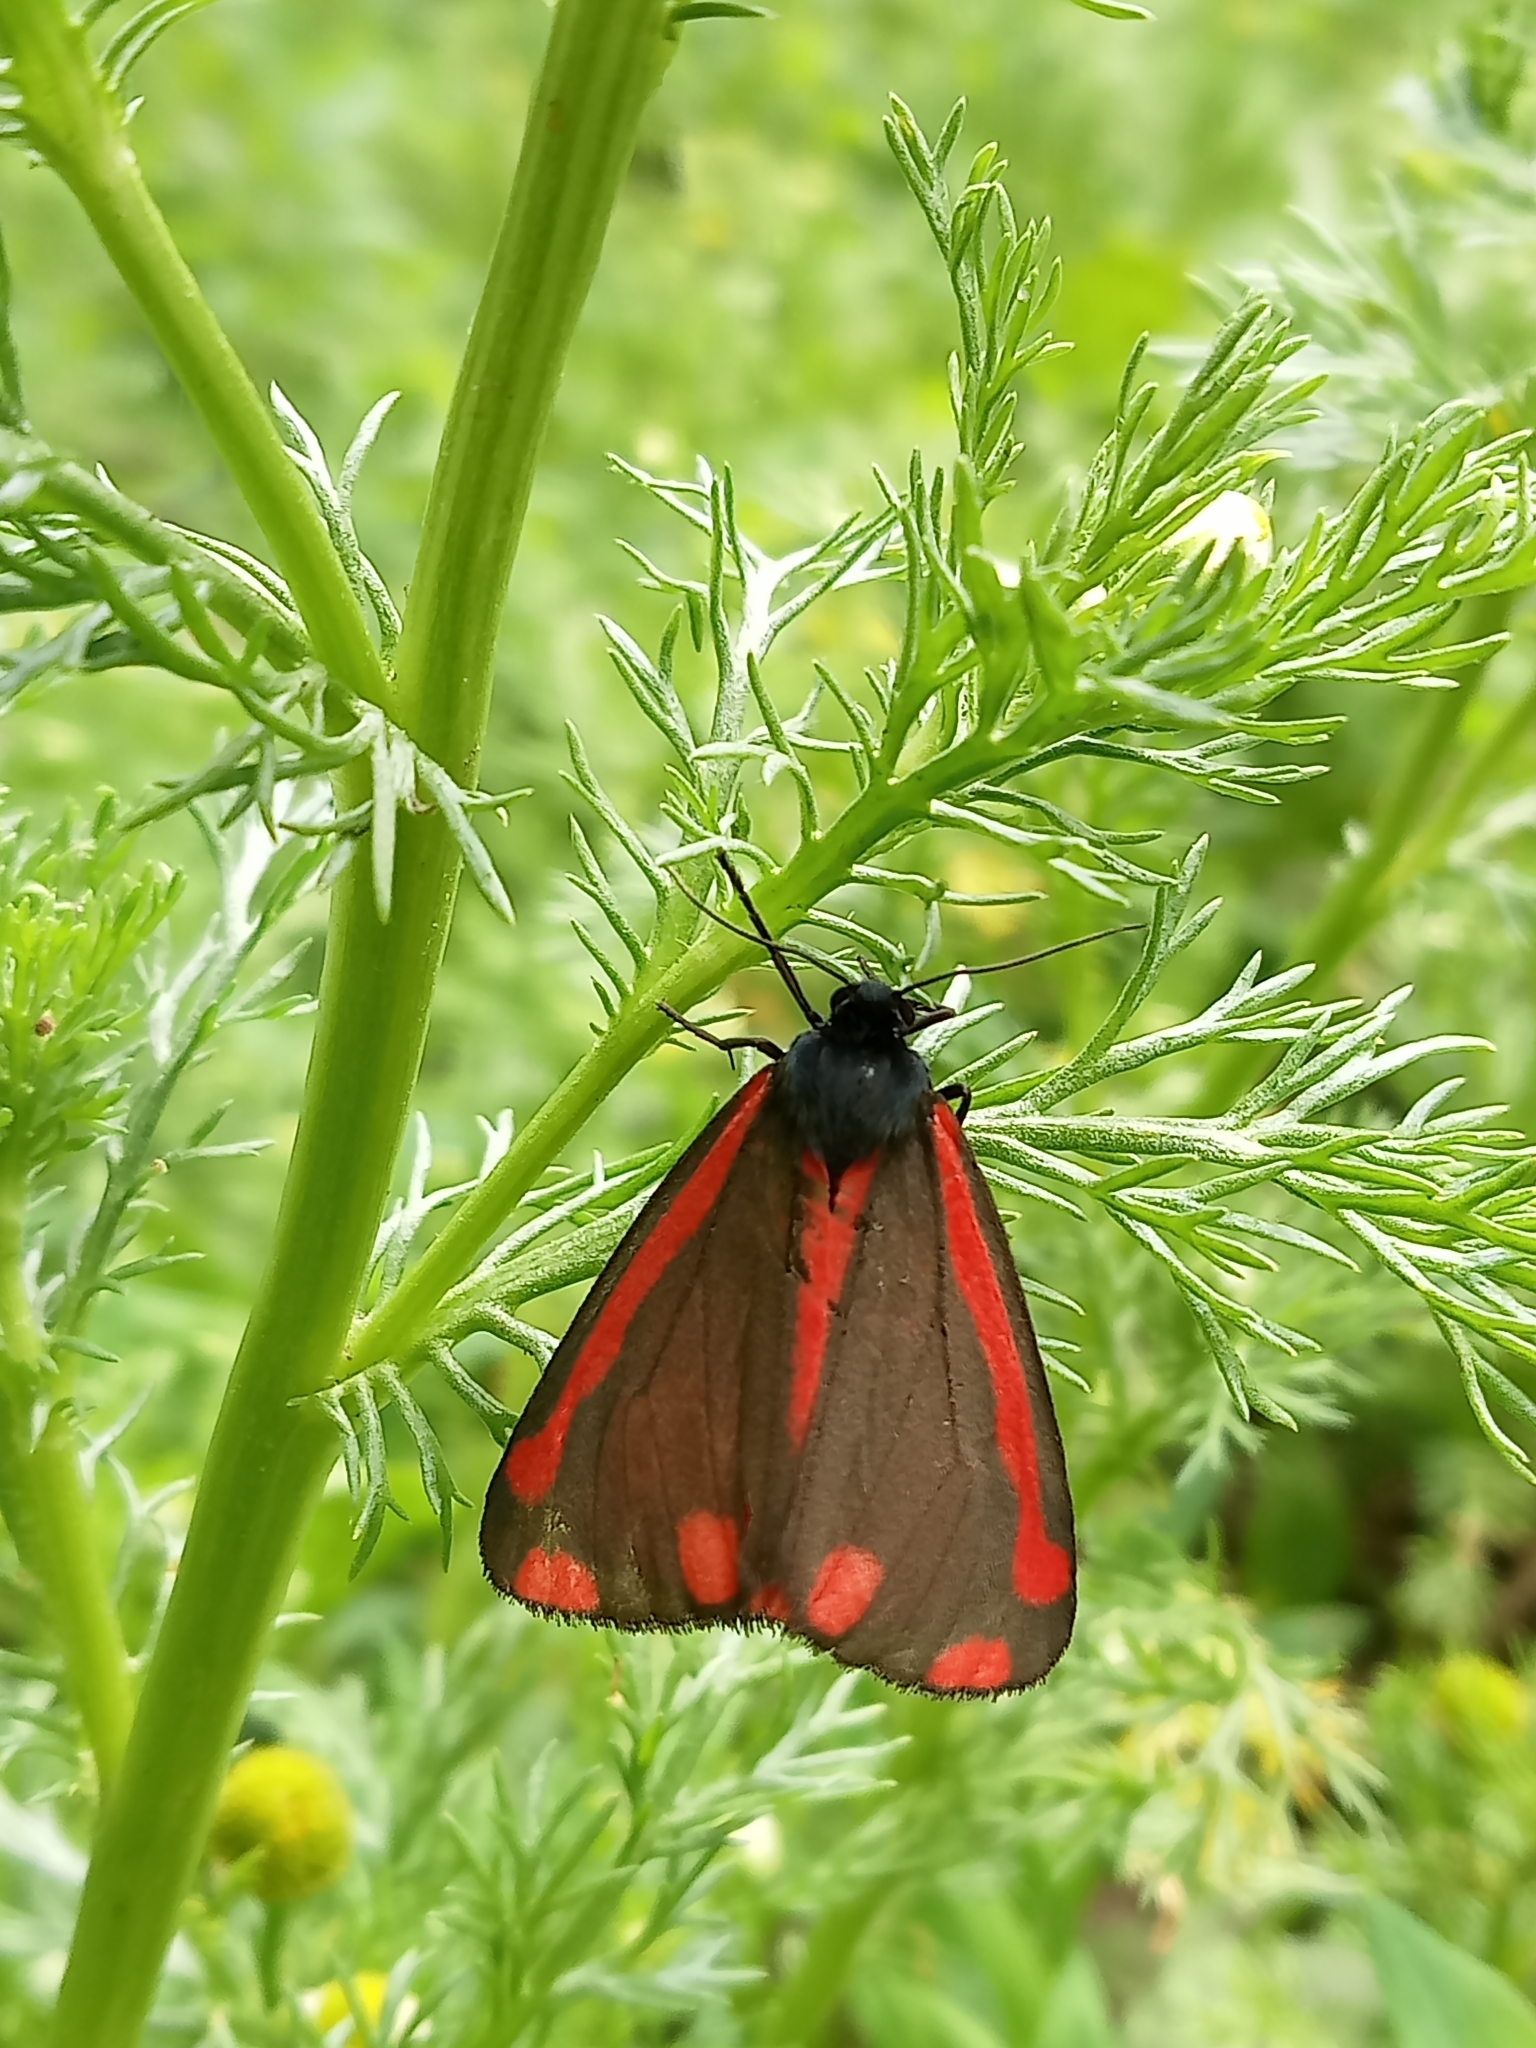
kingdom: Animalia
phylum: Arthropoda
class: Insecta
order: Lepidoptera
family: Erebidae
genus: Tyria
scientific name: Tyria jacobaeae
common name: Cinnabar
